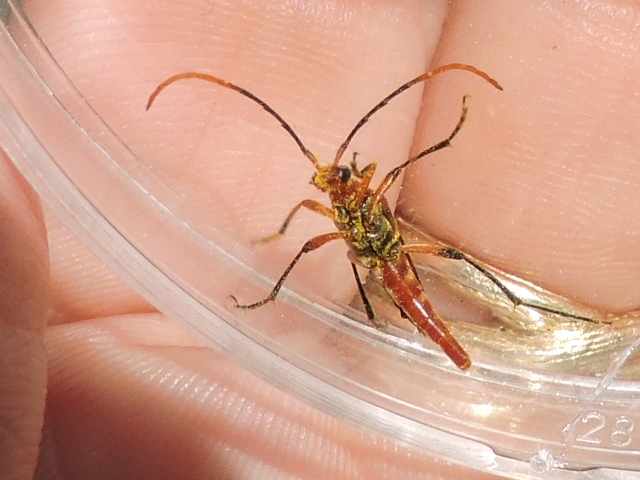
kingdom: Animalia
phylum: Arthropoda
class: Insecta
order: Coleoptera
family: Cerambycidae
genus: Strangalia
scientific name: Strangalia sexnotata
